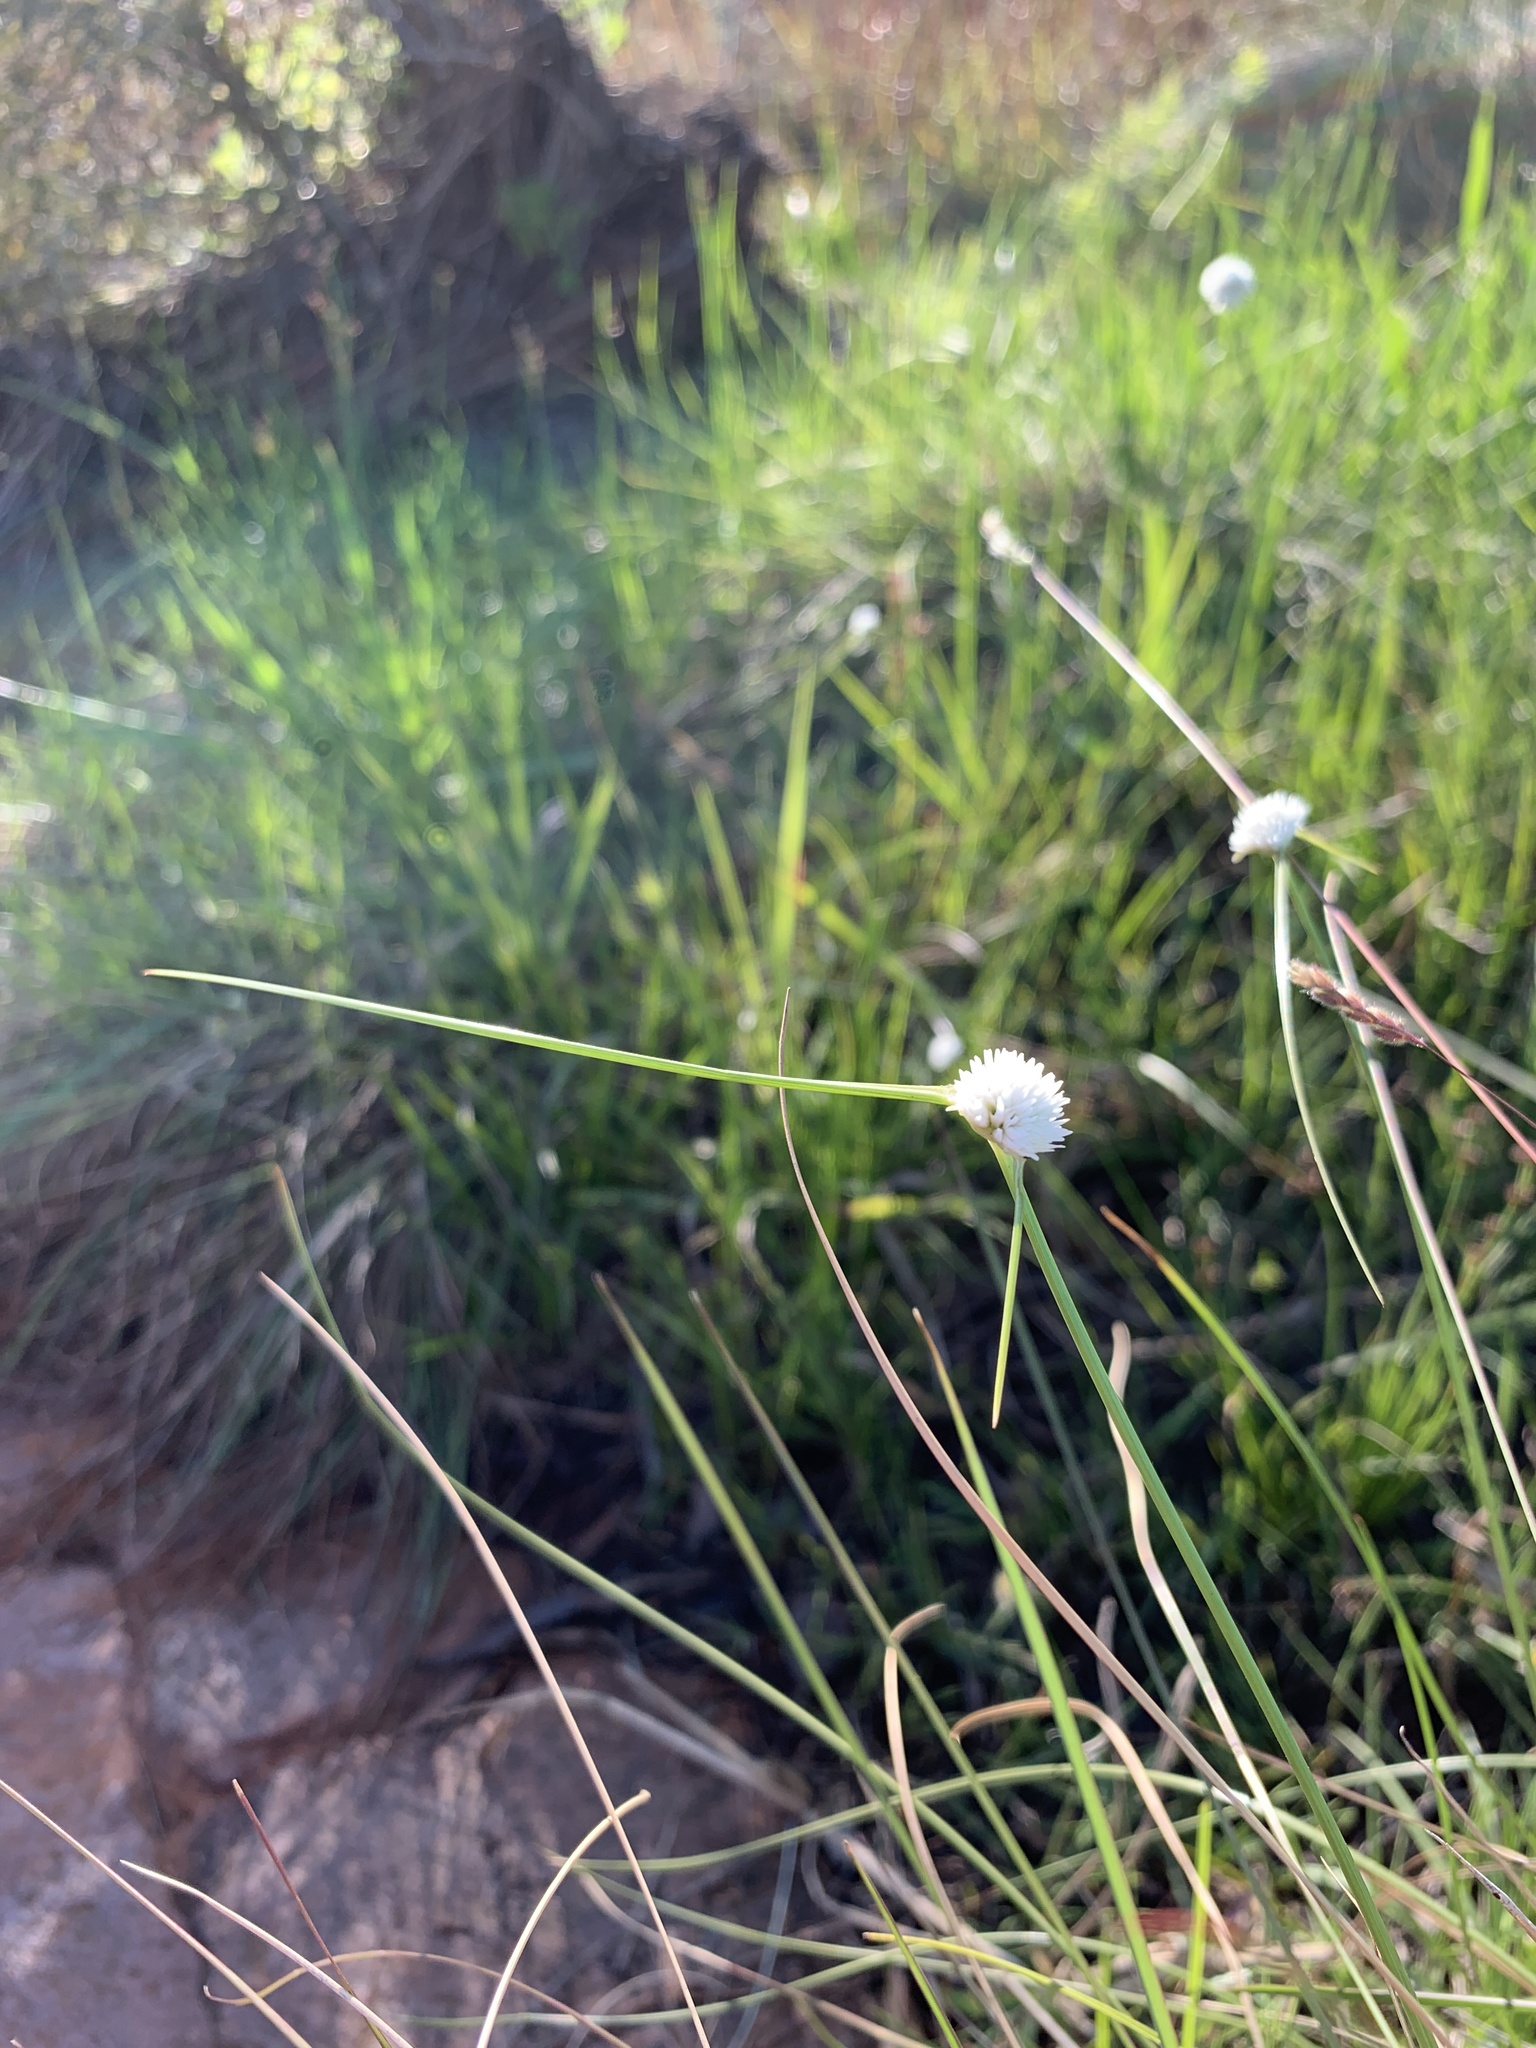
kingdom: Plantae
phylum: Tracheophyta
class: Liliopsida
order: Poales
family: Cyperaceae
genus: Cyperus
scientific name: Cyperus ascocapensis
